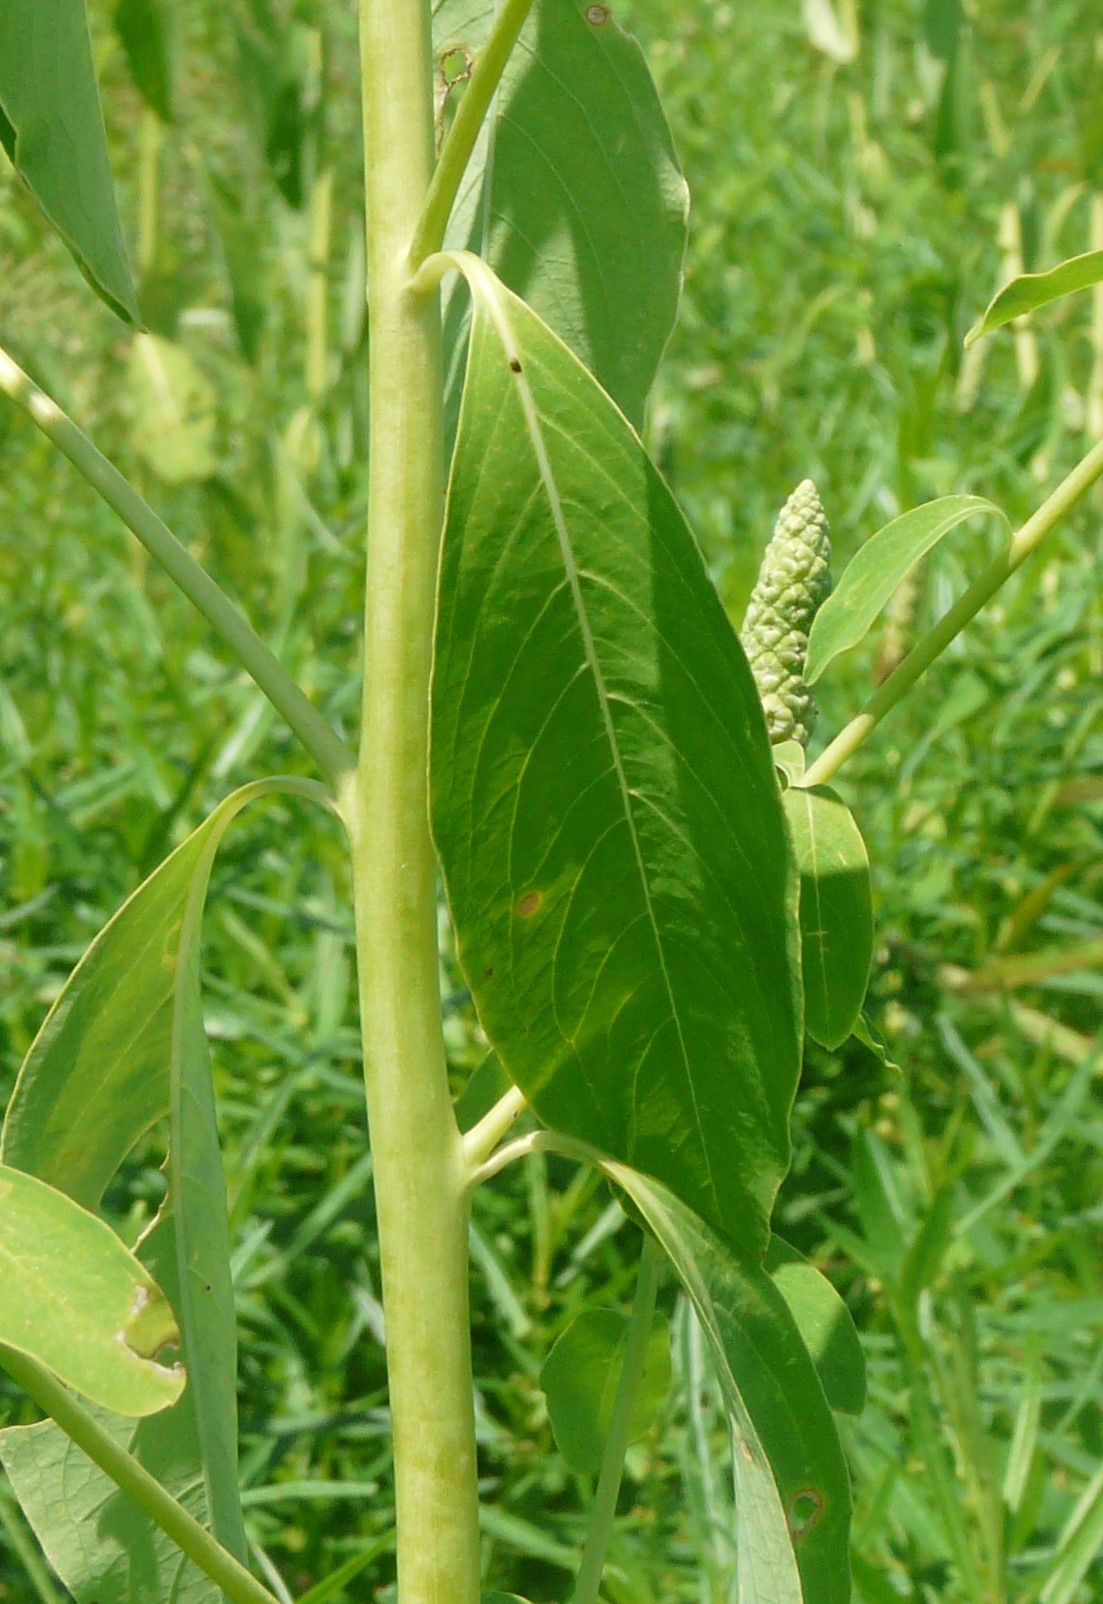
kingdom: Plantae
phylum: Tracheophyta
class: Magnoliopsida
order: Solanales
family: Sphenocleaceae
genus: Sphenoclea
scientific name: Sphenoclea zeylanica
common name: Chickenspike
